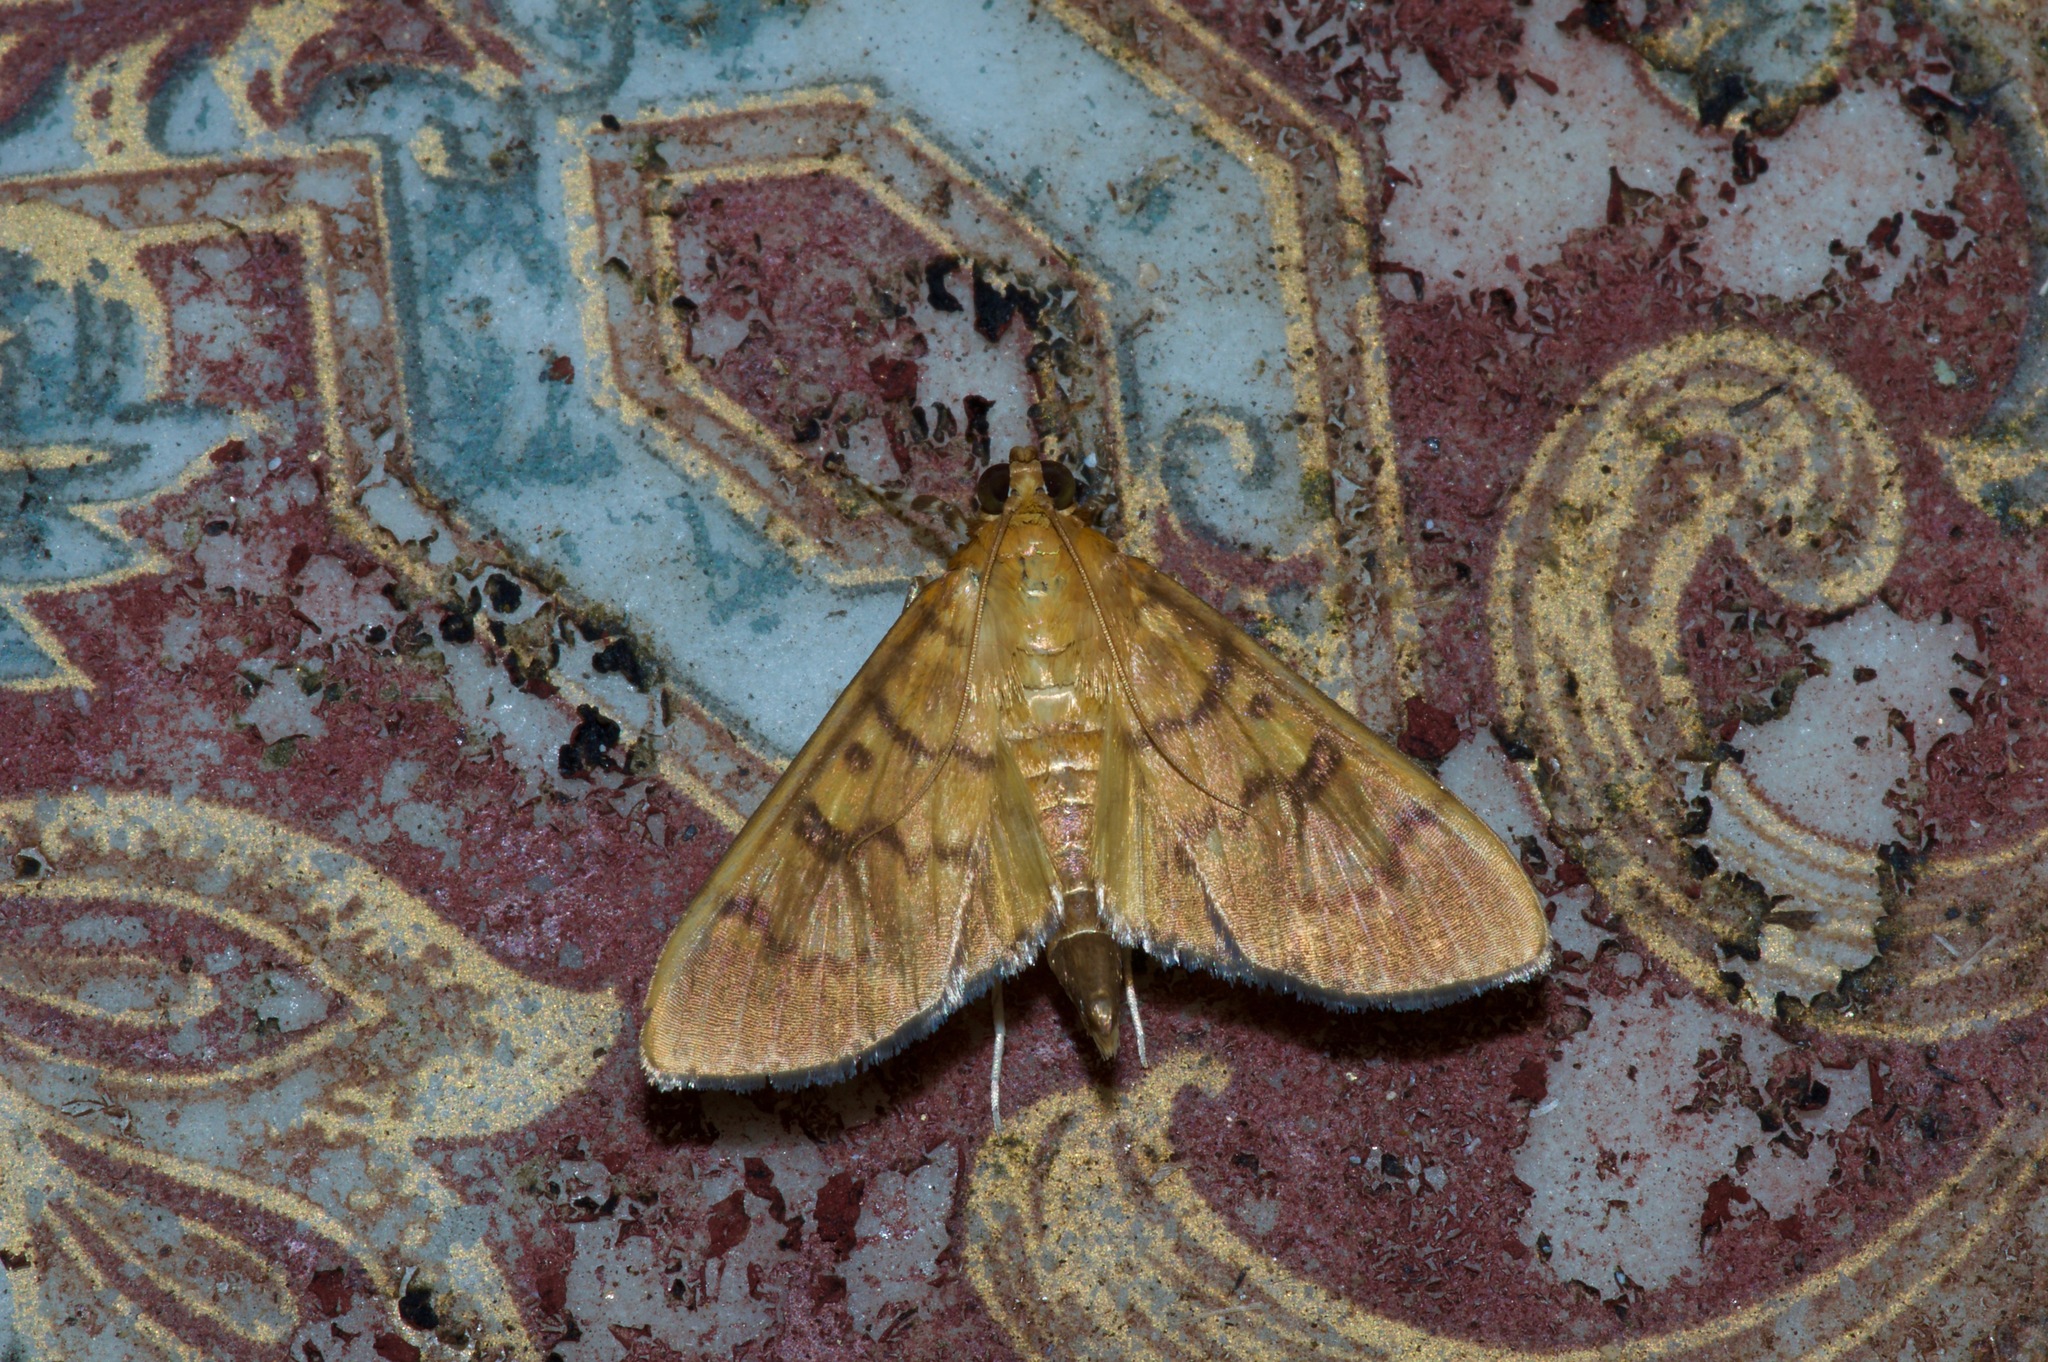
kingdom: Animalia
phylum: Arthropoda
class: Insecta
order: Lepidoptera
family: Crambidae
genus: Syllepte
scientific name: Syllepte obscuralis
